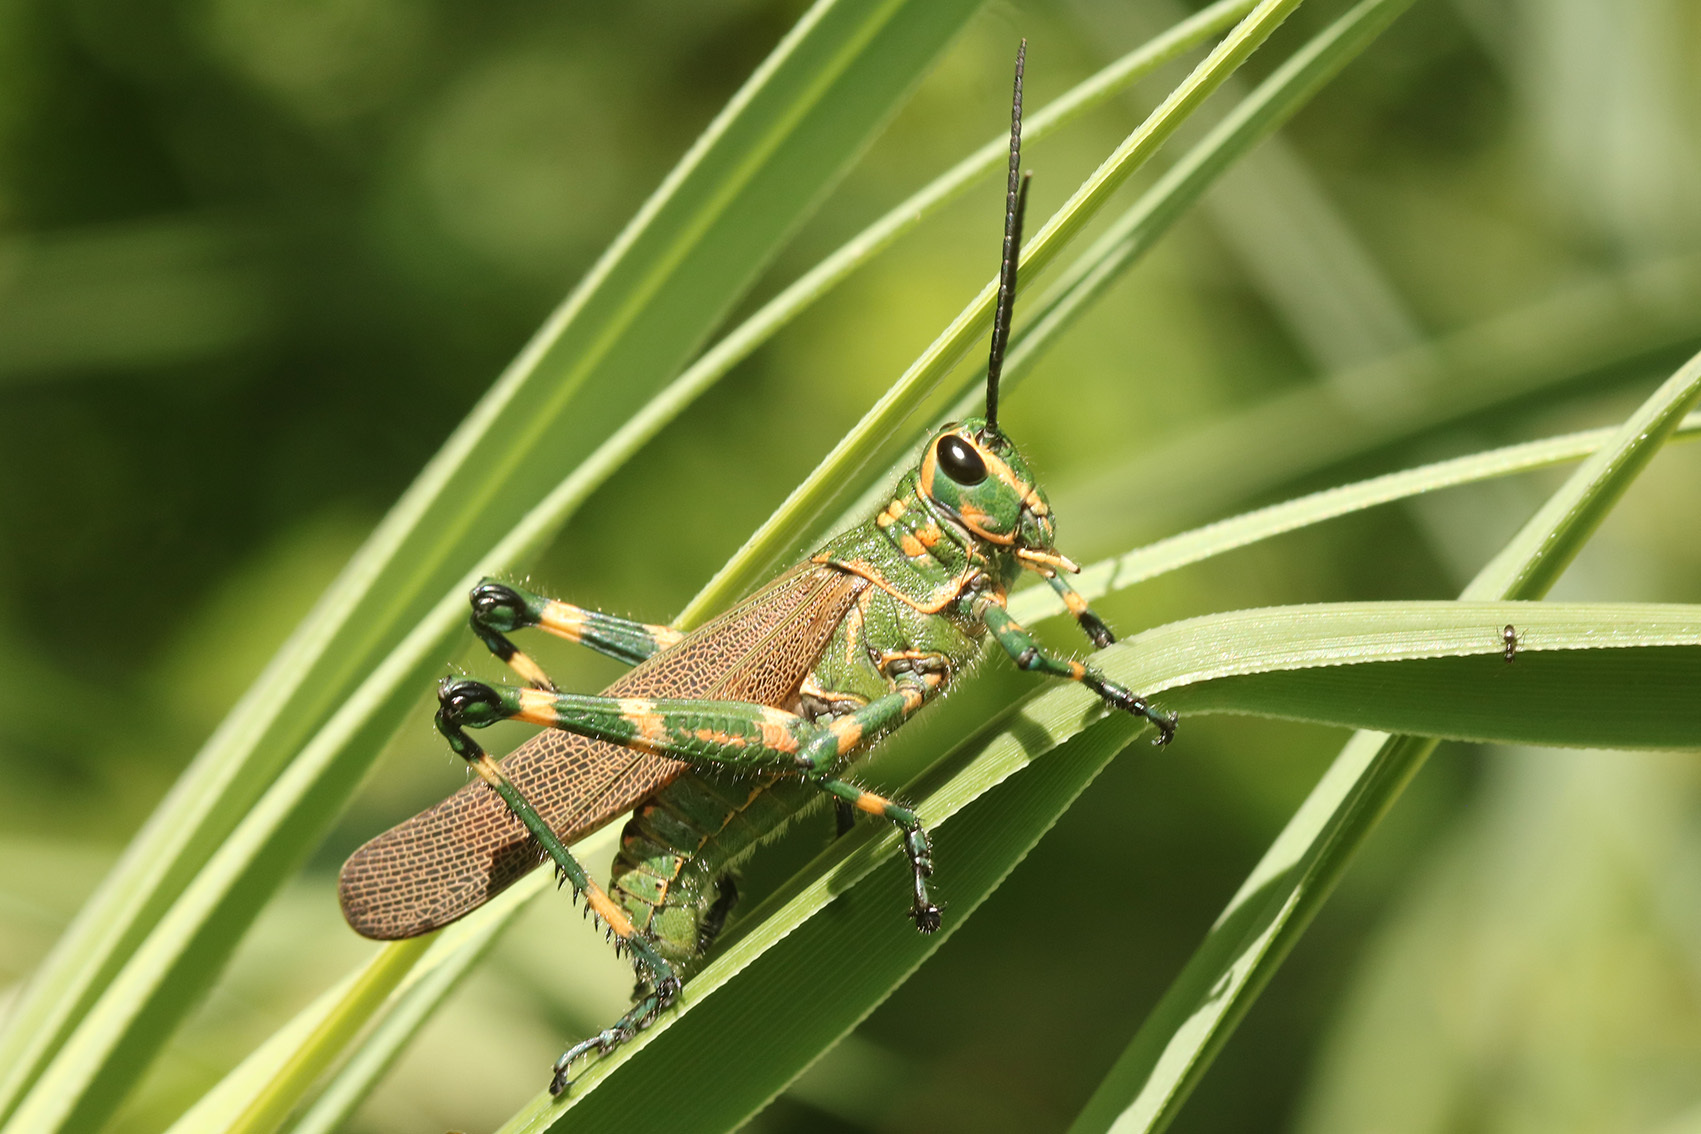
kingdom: Animalia
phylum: Arthropoda
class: Insecta
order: Orthoptera
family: Romaleidae
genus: Chromacris
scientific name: Chromacris speciosa
